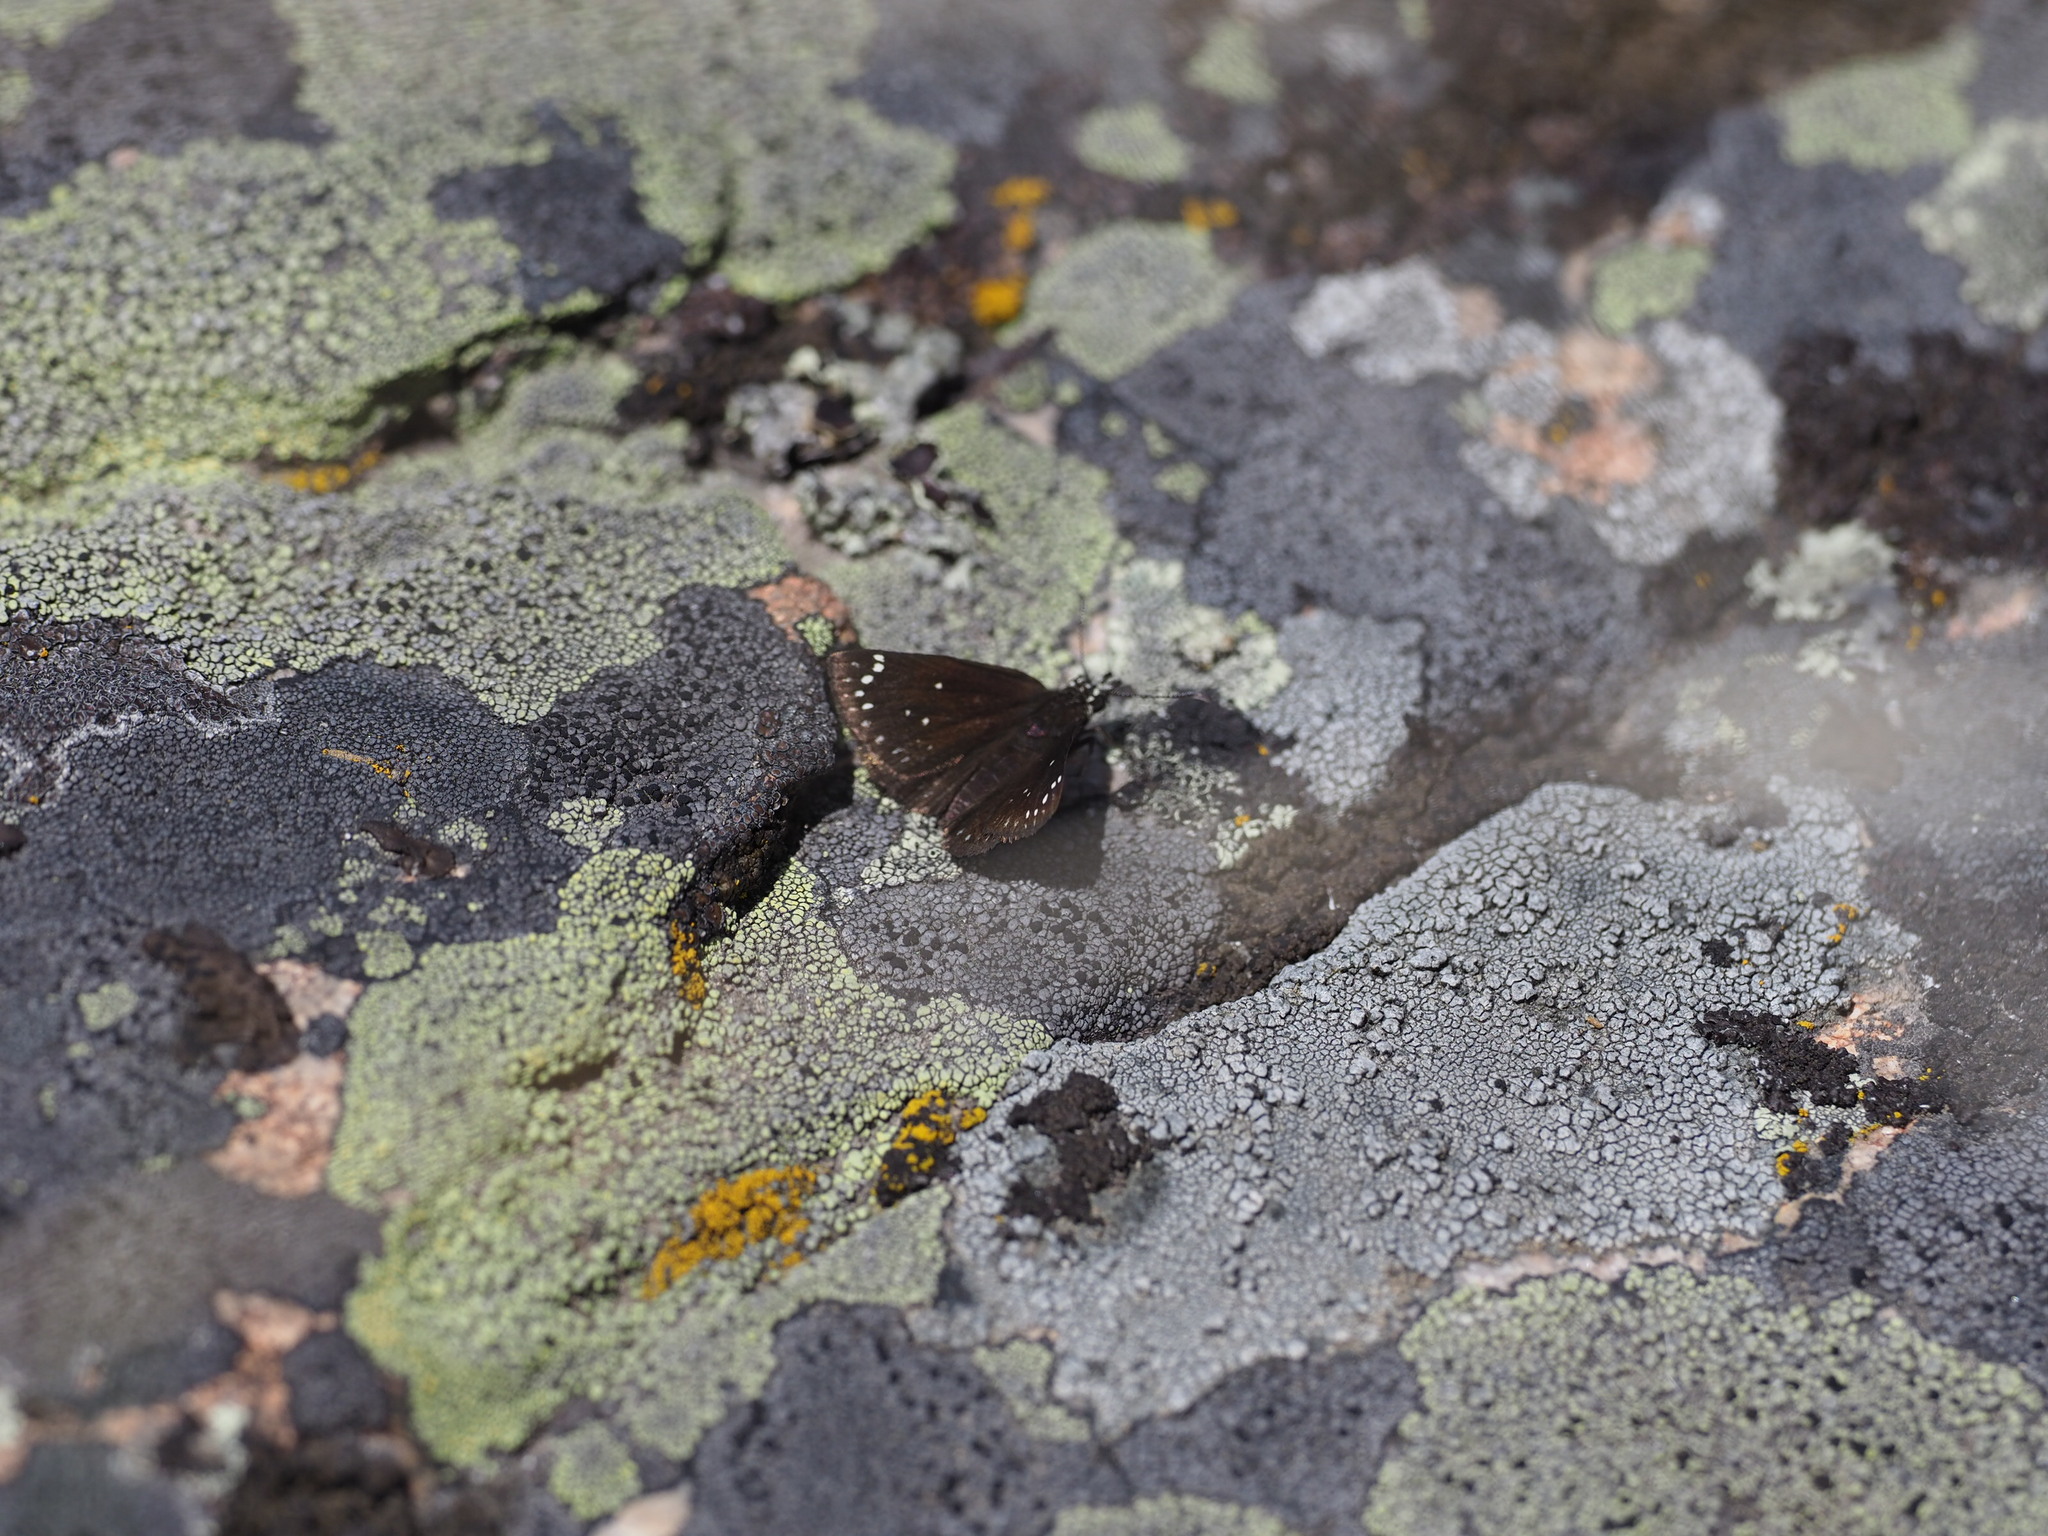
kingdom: Animalia
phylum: Arthropoda
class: Insecta
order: Lepidoptera
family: Hesperiidae
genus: Pholisora
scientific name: Pholisora catullus
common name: Common sootywing
